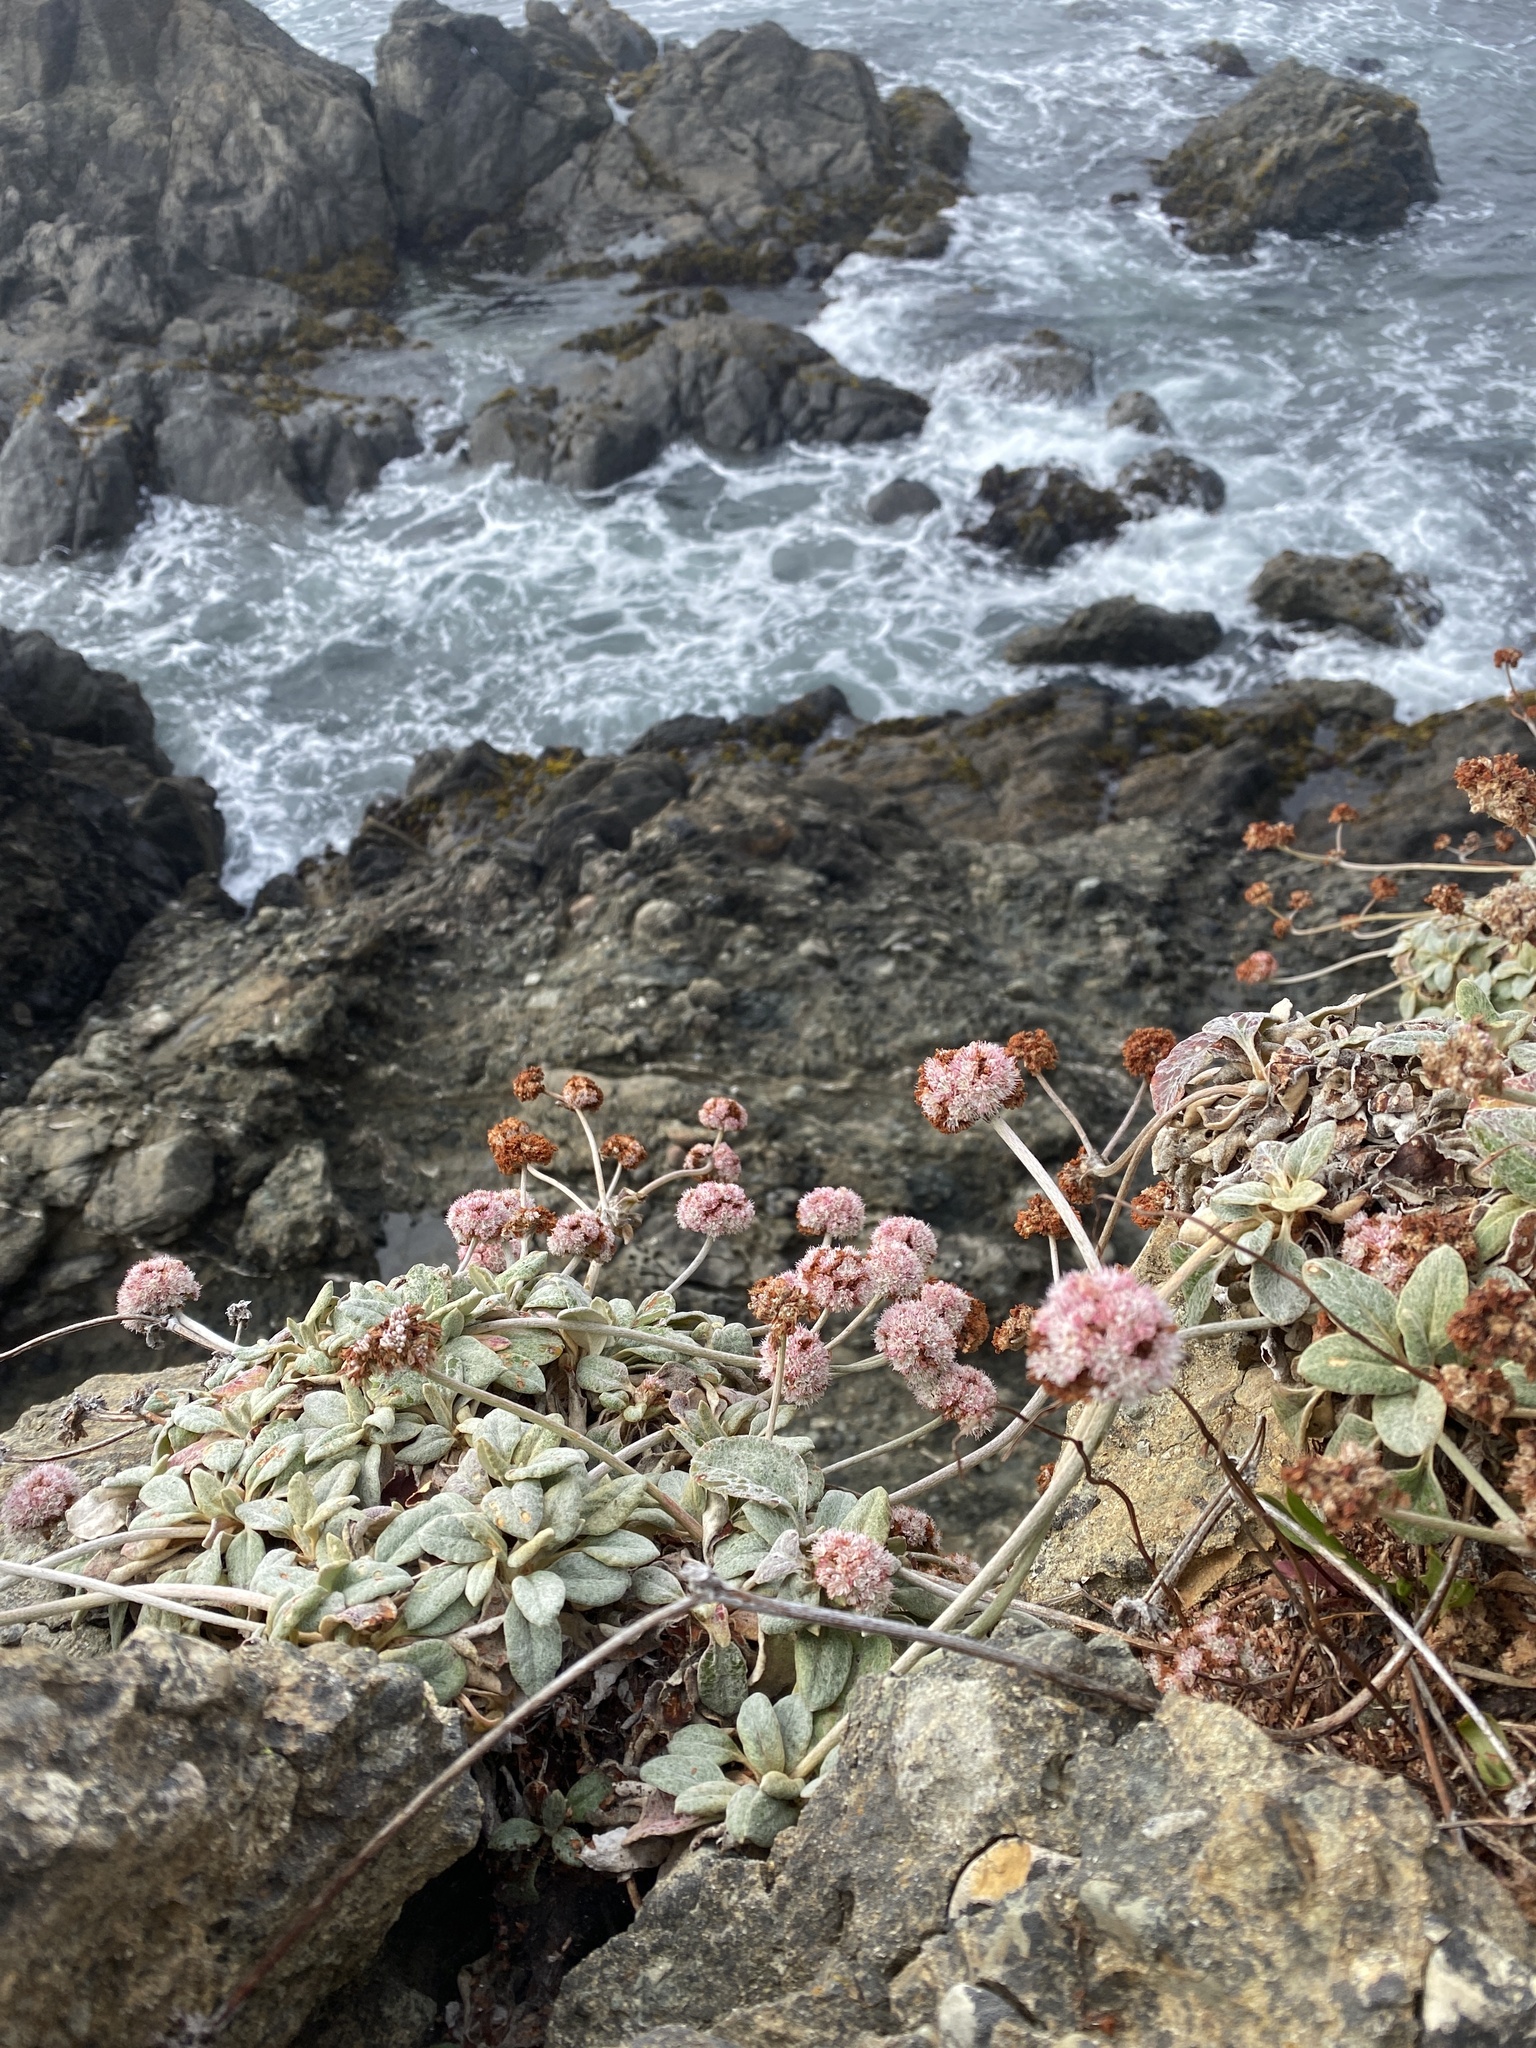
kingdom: Plantae
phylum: Tracheophyta
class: Magnoliopsida
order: Caryophyllales
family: Polygonaceae
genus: Eriogonum
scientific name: Eriogonum latifolium
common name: Seaside wild buckwheat
